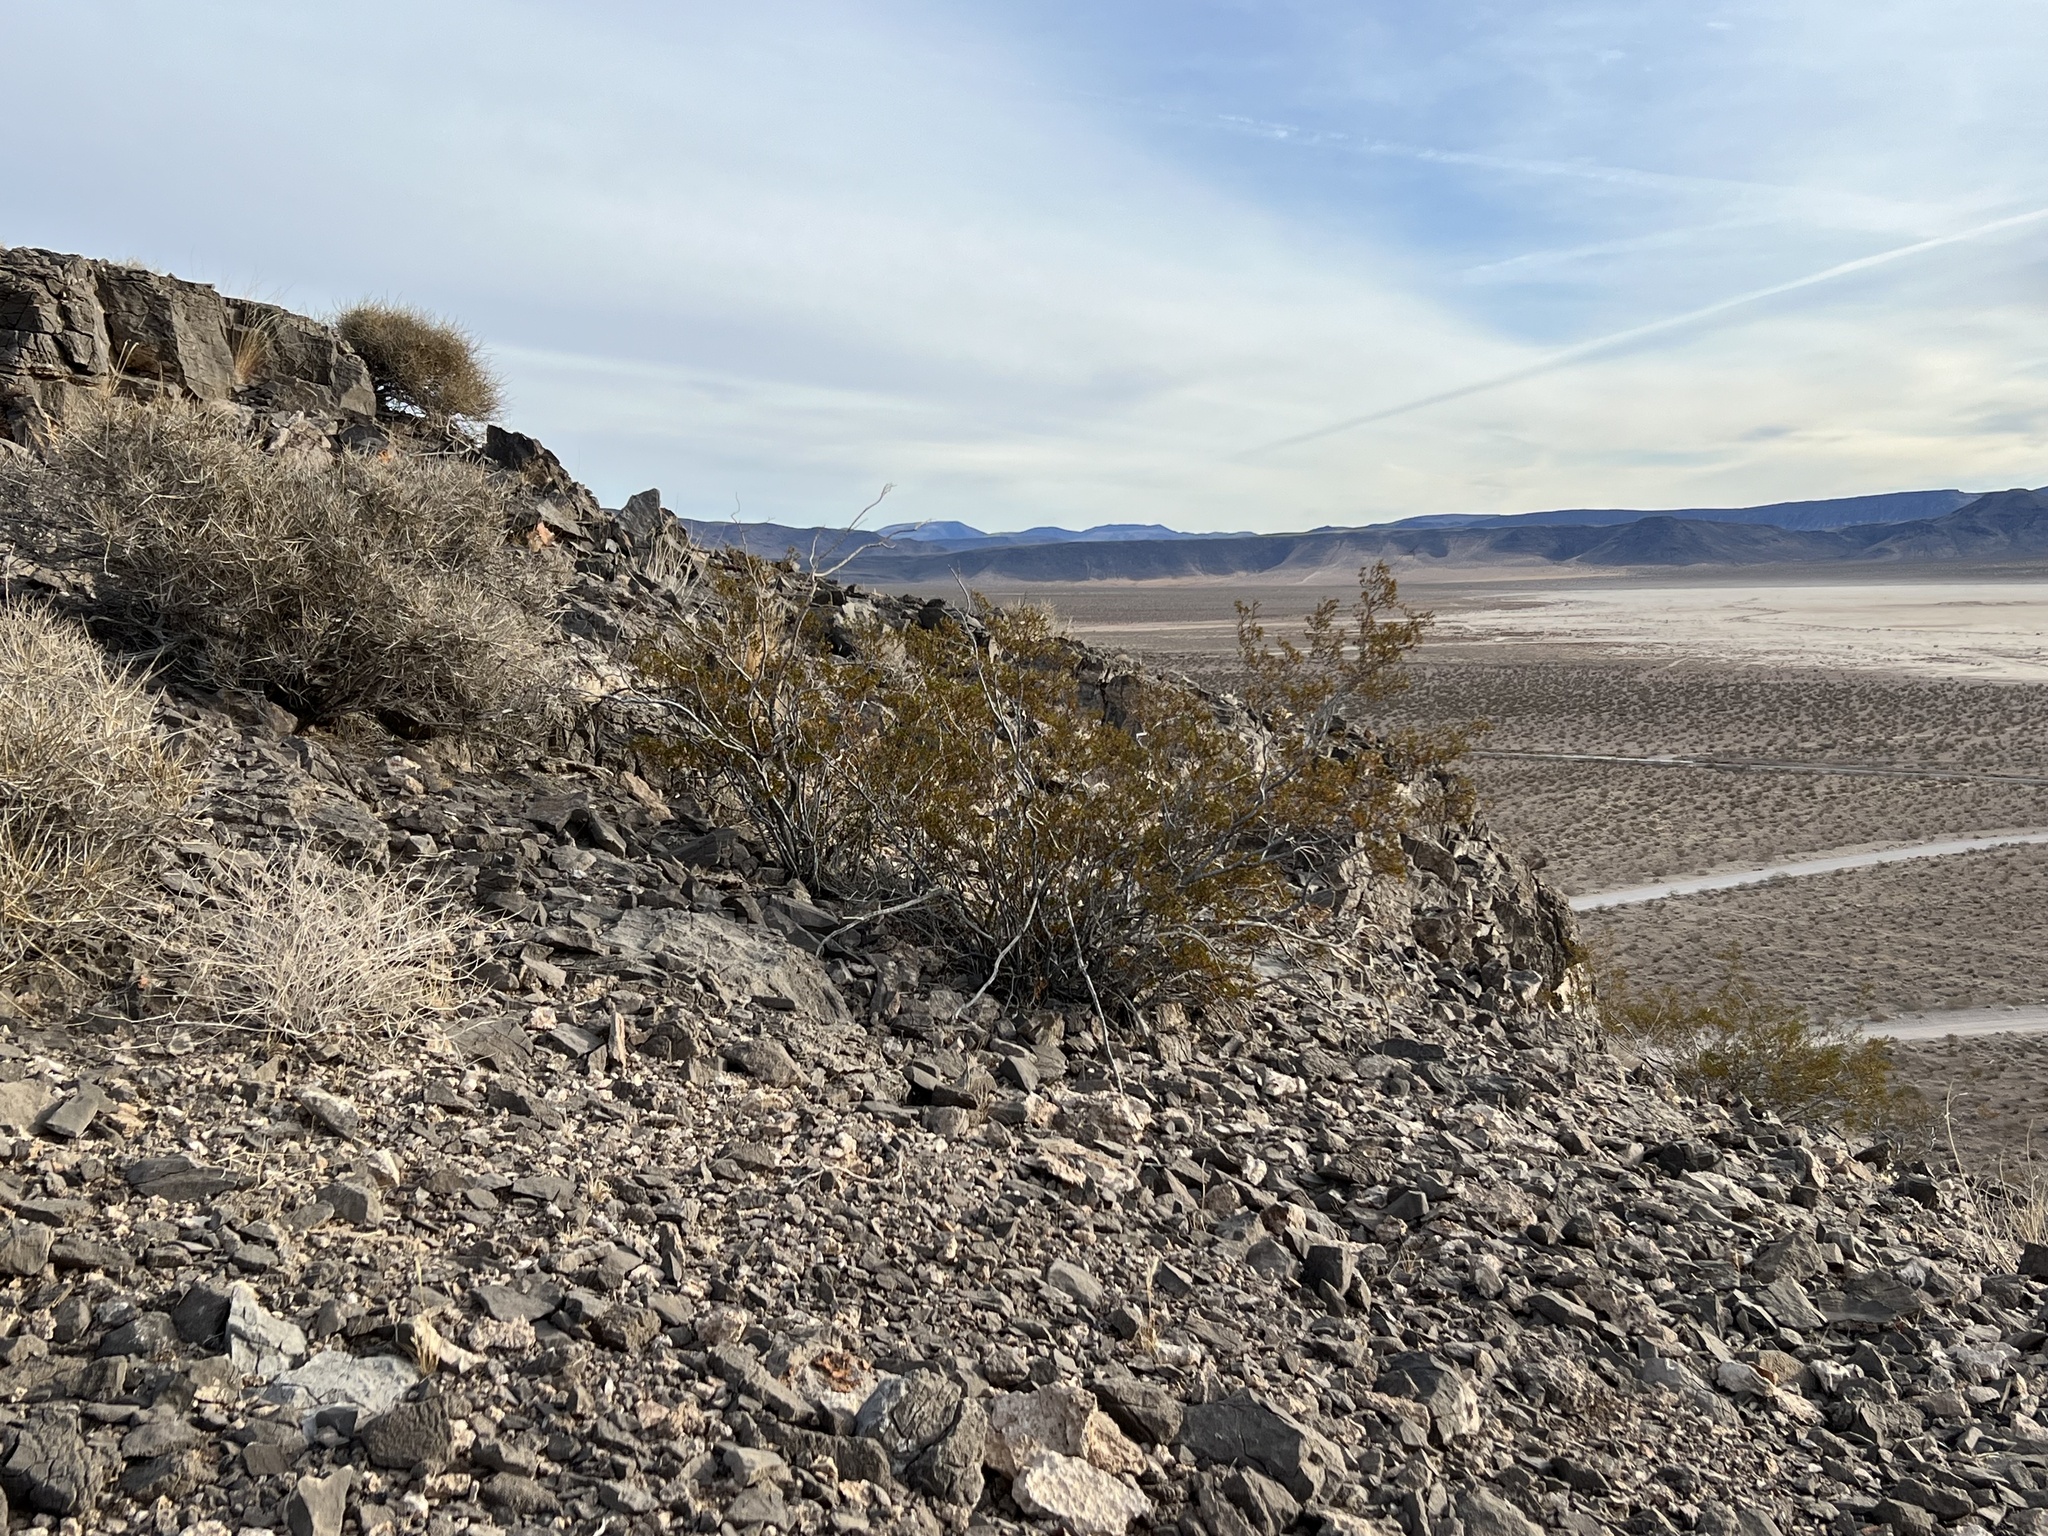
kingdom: Plantae
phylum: Tracheophyta
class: Magnoliopsida
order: Zygophyllales
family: Zygophyllaceae
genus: Larrea
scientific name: Larrea tridentata
